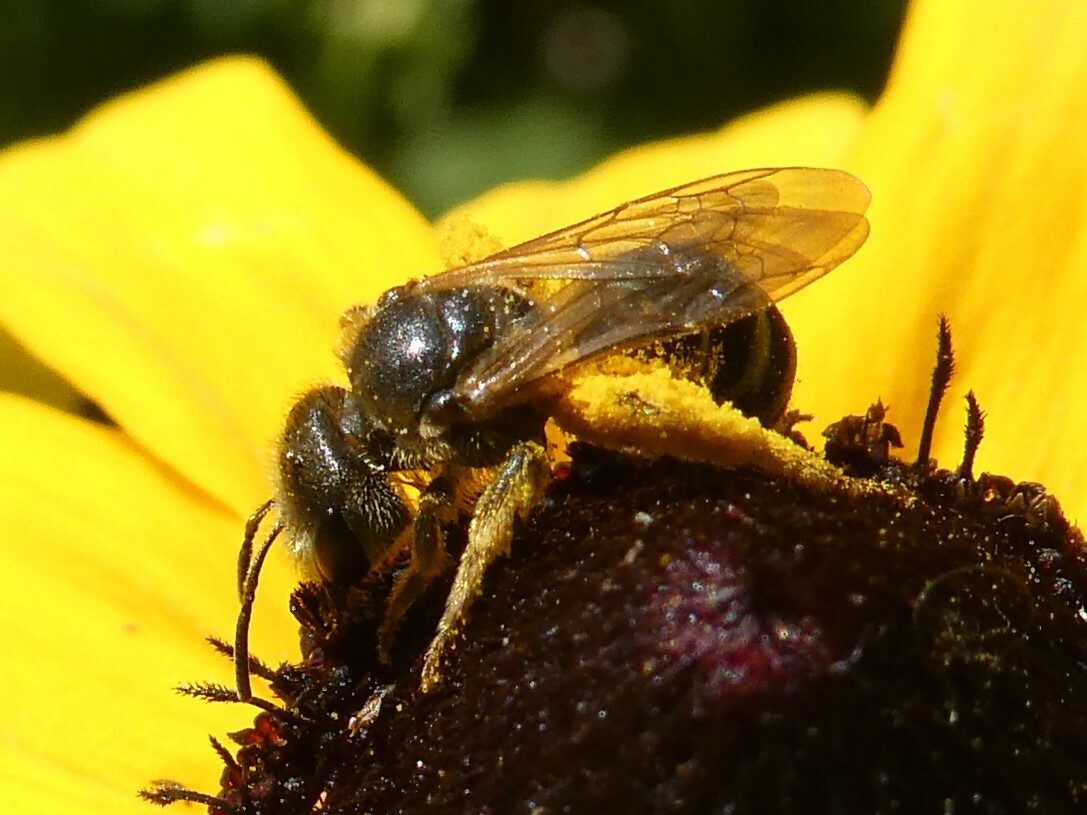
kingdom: Animalia
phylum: Arthropoda
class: Insecta
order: Hymenoptera
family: Halictidae
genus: Halictus
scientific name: Halictus ligatus
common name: Ligated furrow bee
